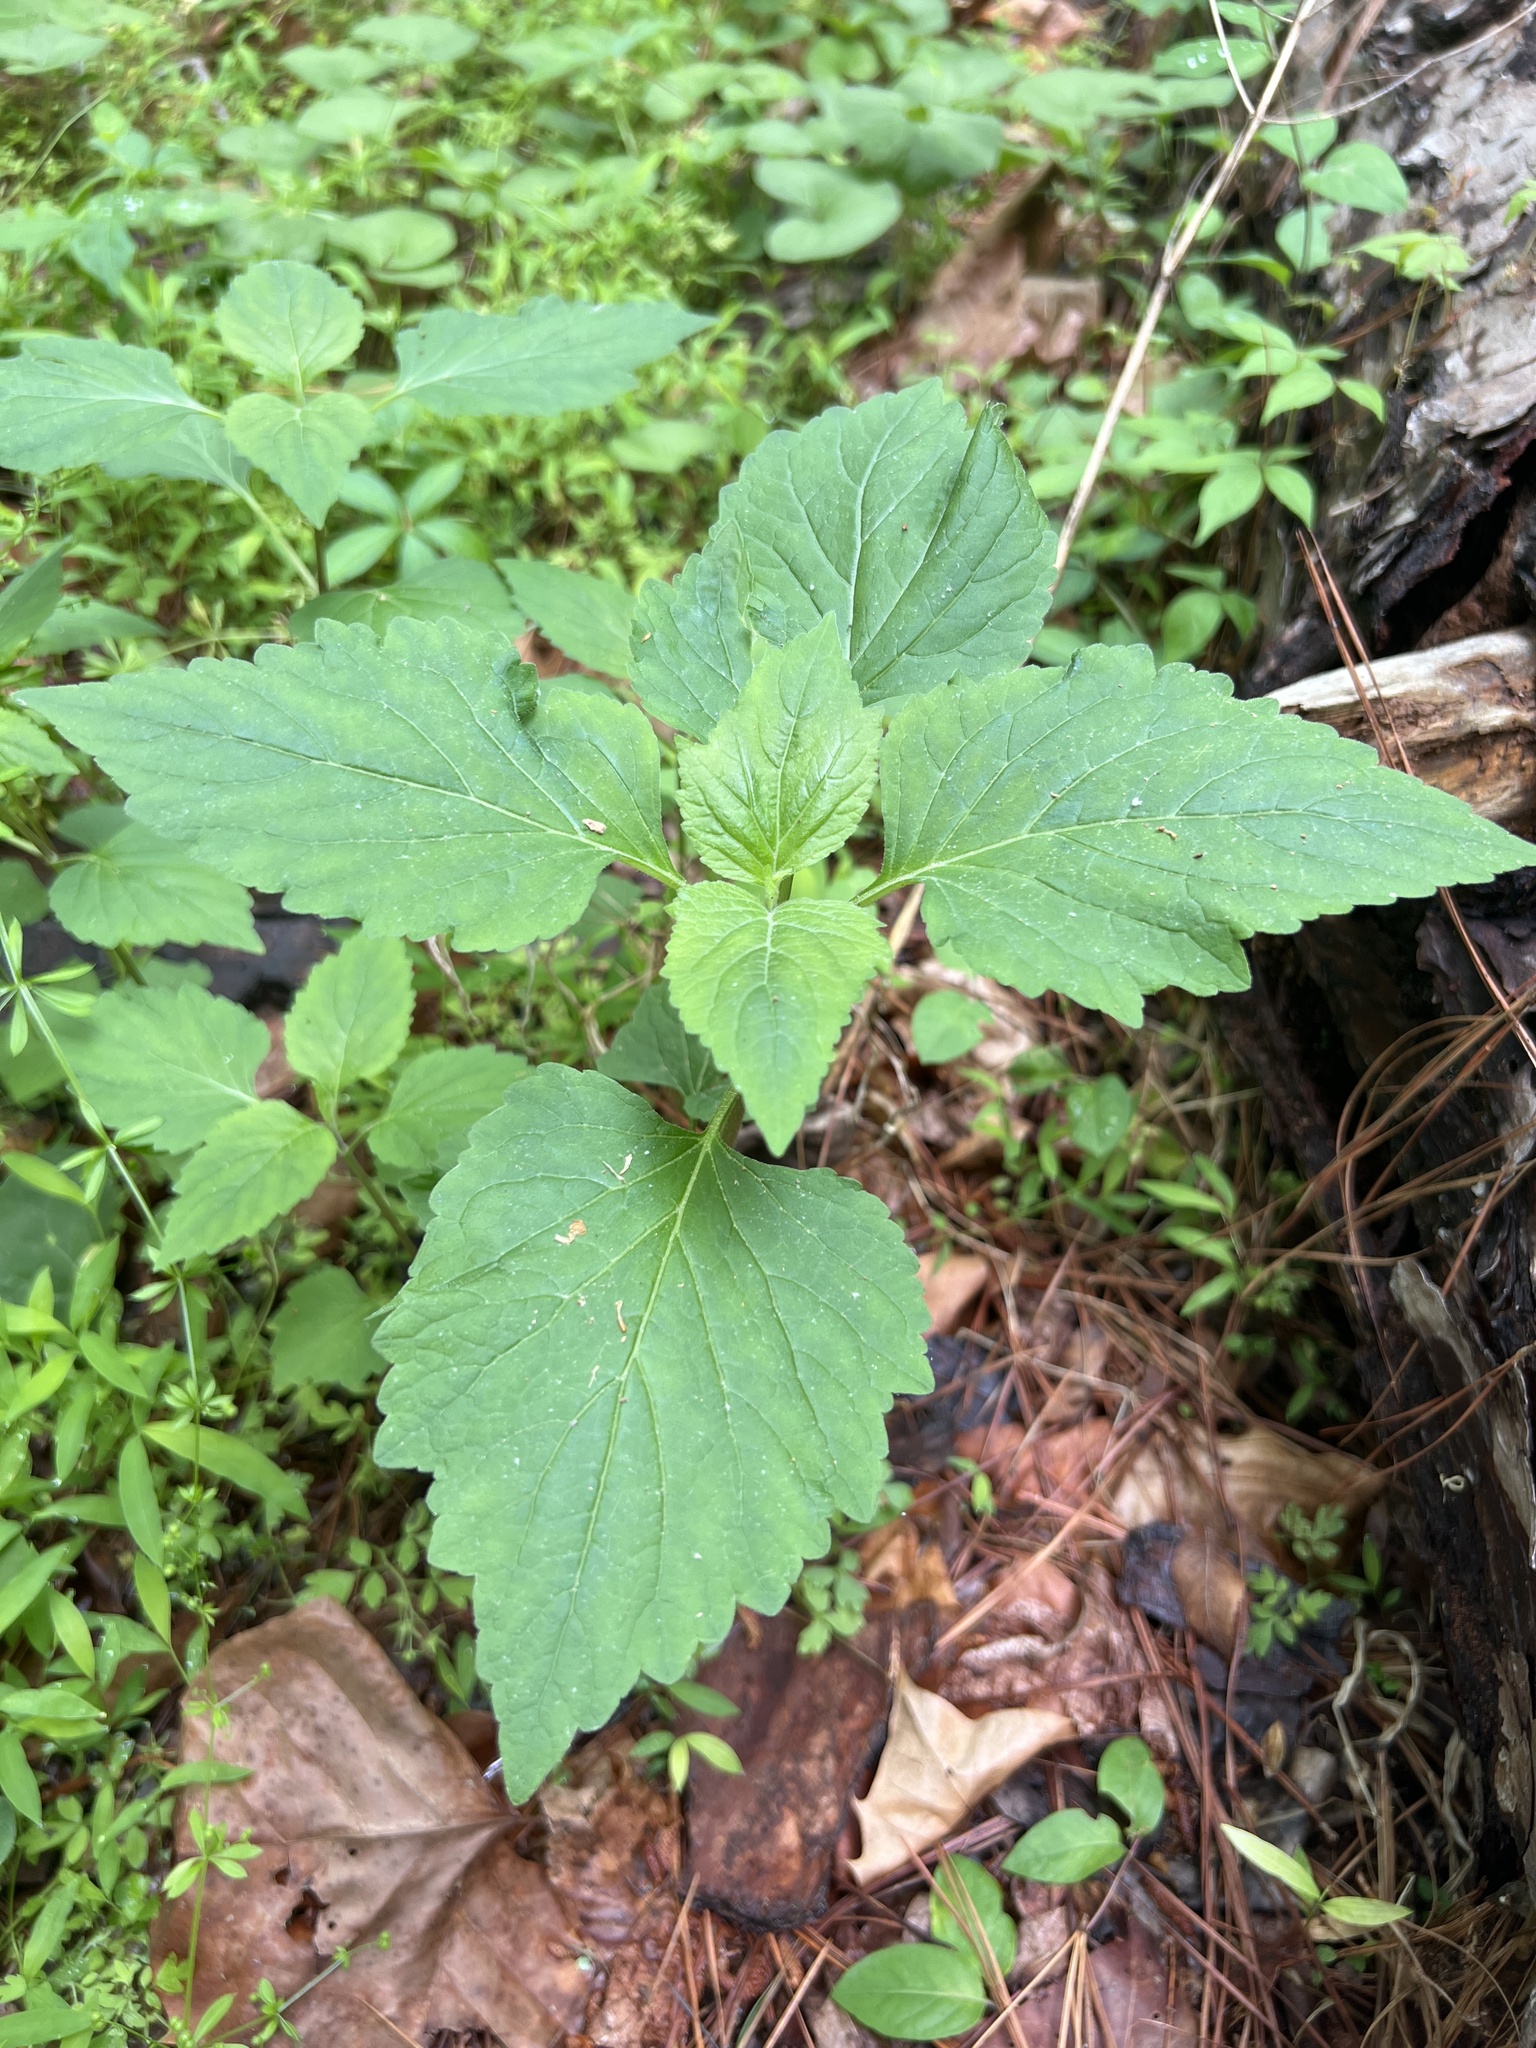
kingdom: Plantae
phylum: Tracheophyta
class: Magnoliopsida
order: Lamiales
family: Phrymaceae
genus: Phryma
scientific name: Phryma leptostachya
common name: American lopseed
